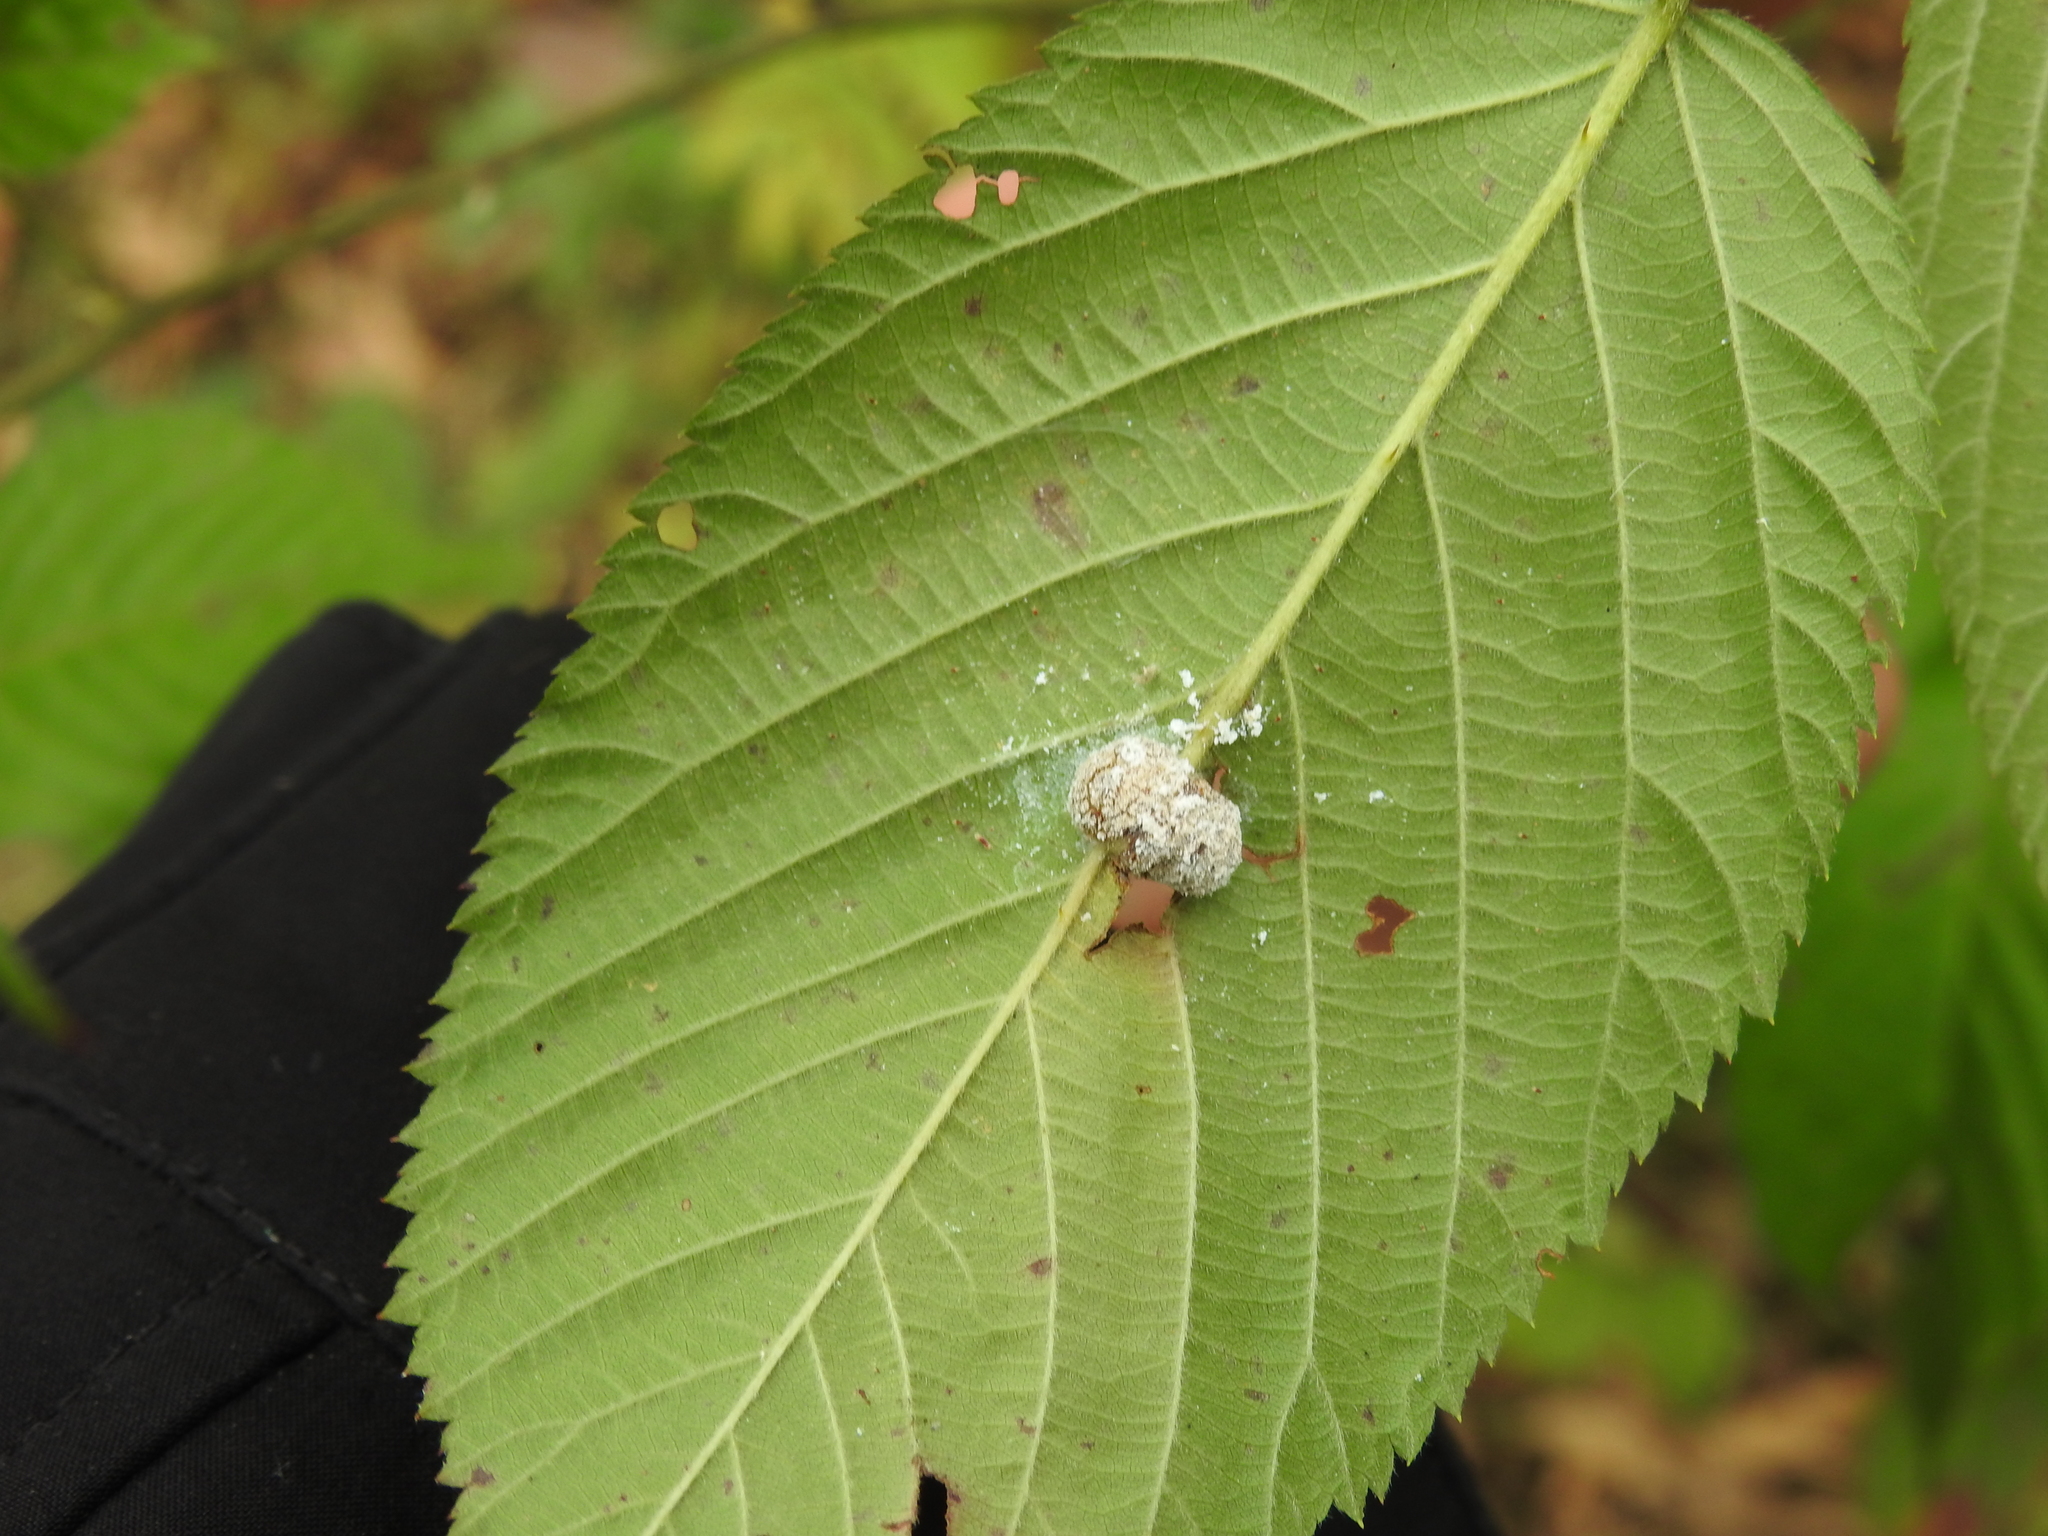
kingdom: Animalia
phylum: Arthropoda
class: Insecta
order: Diptera
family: Cecidomyiidae
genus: Neolasioptera
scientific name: Neolasioptera farinosa
